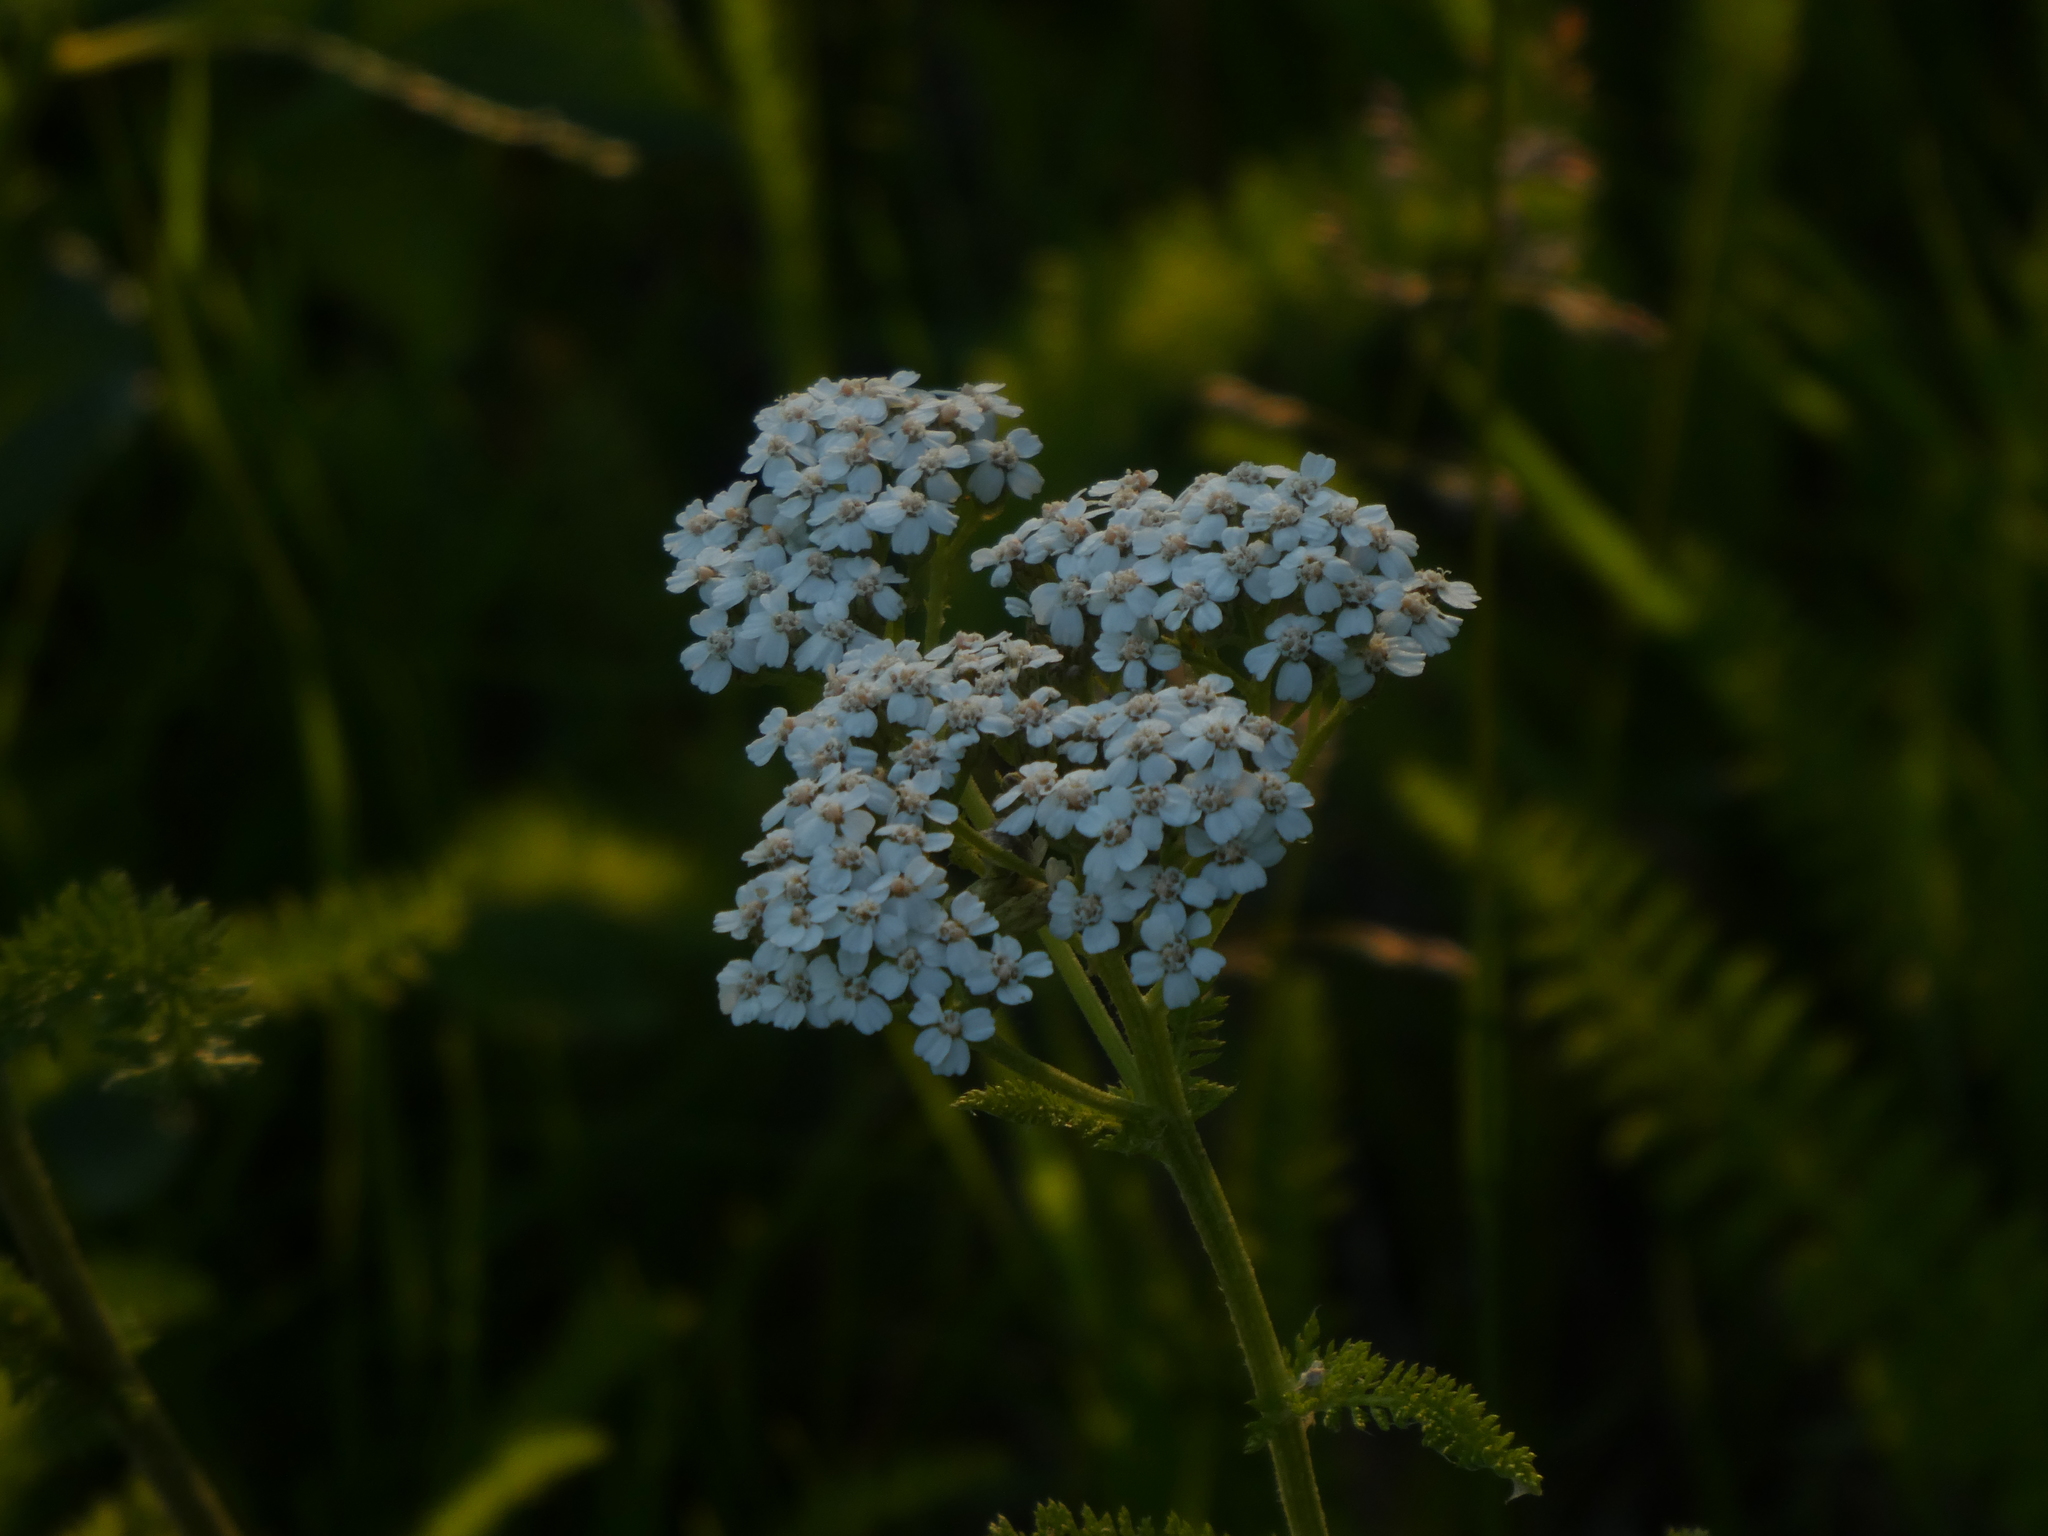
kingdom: Plantae
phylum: Tracheophyta
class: Magnoliopsida
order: Asterales
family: Asteraceae
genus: Achillea
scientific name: Achillea millefolium
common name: Yarrow
